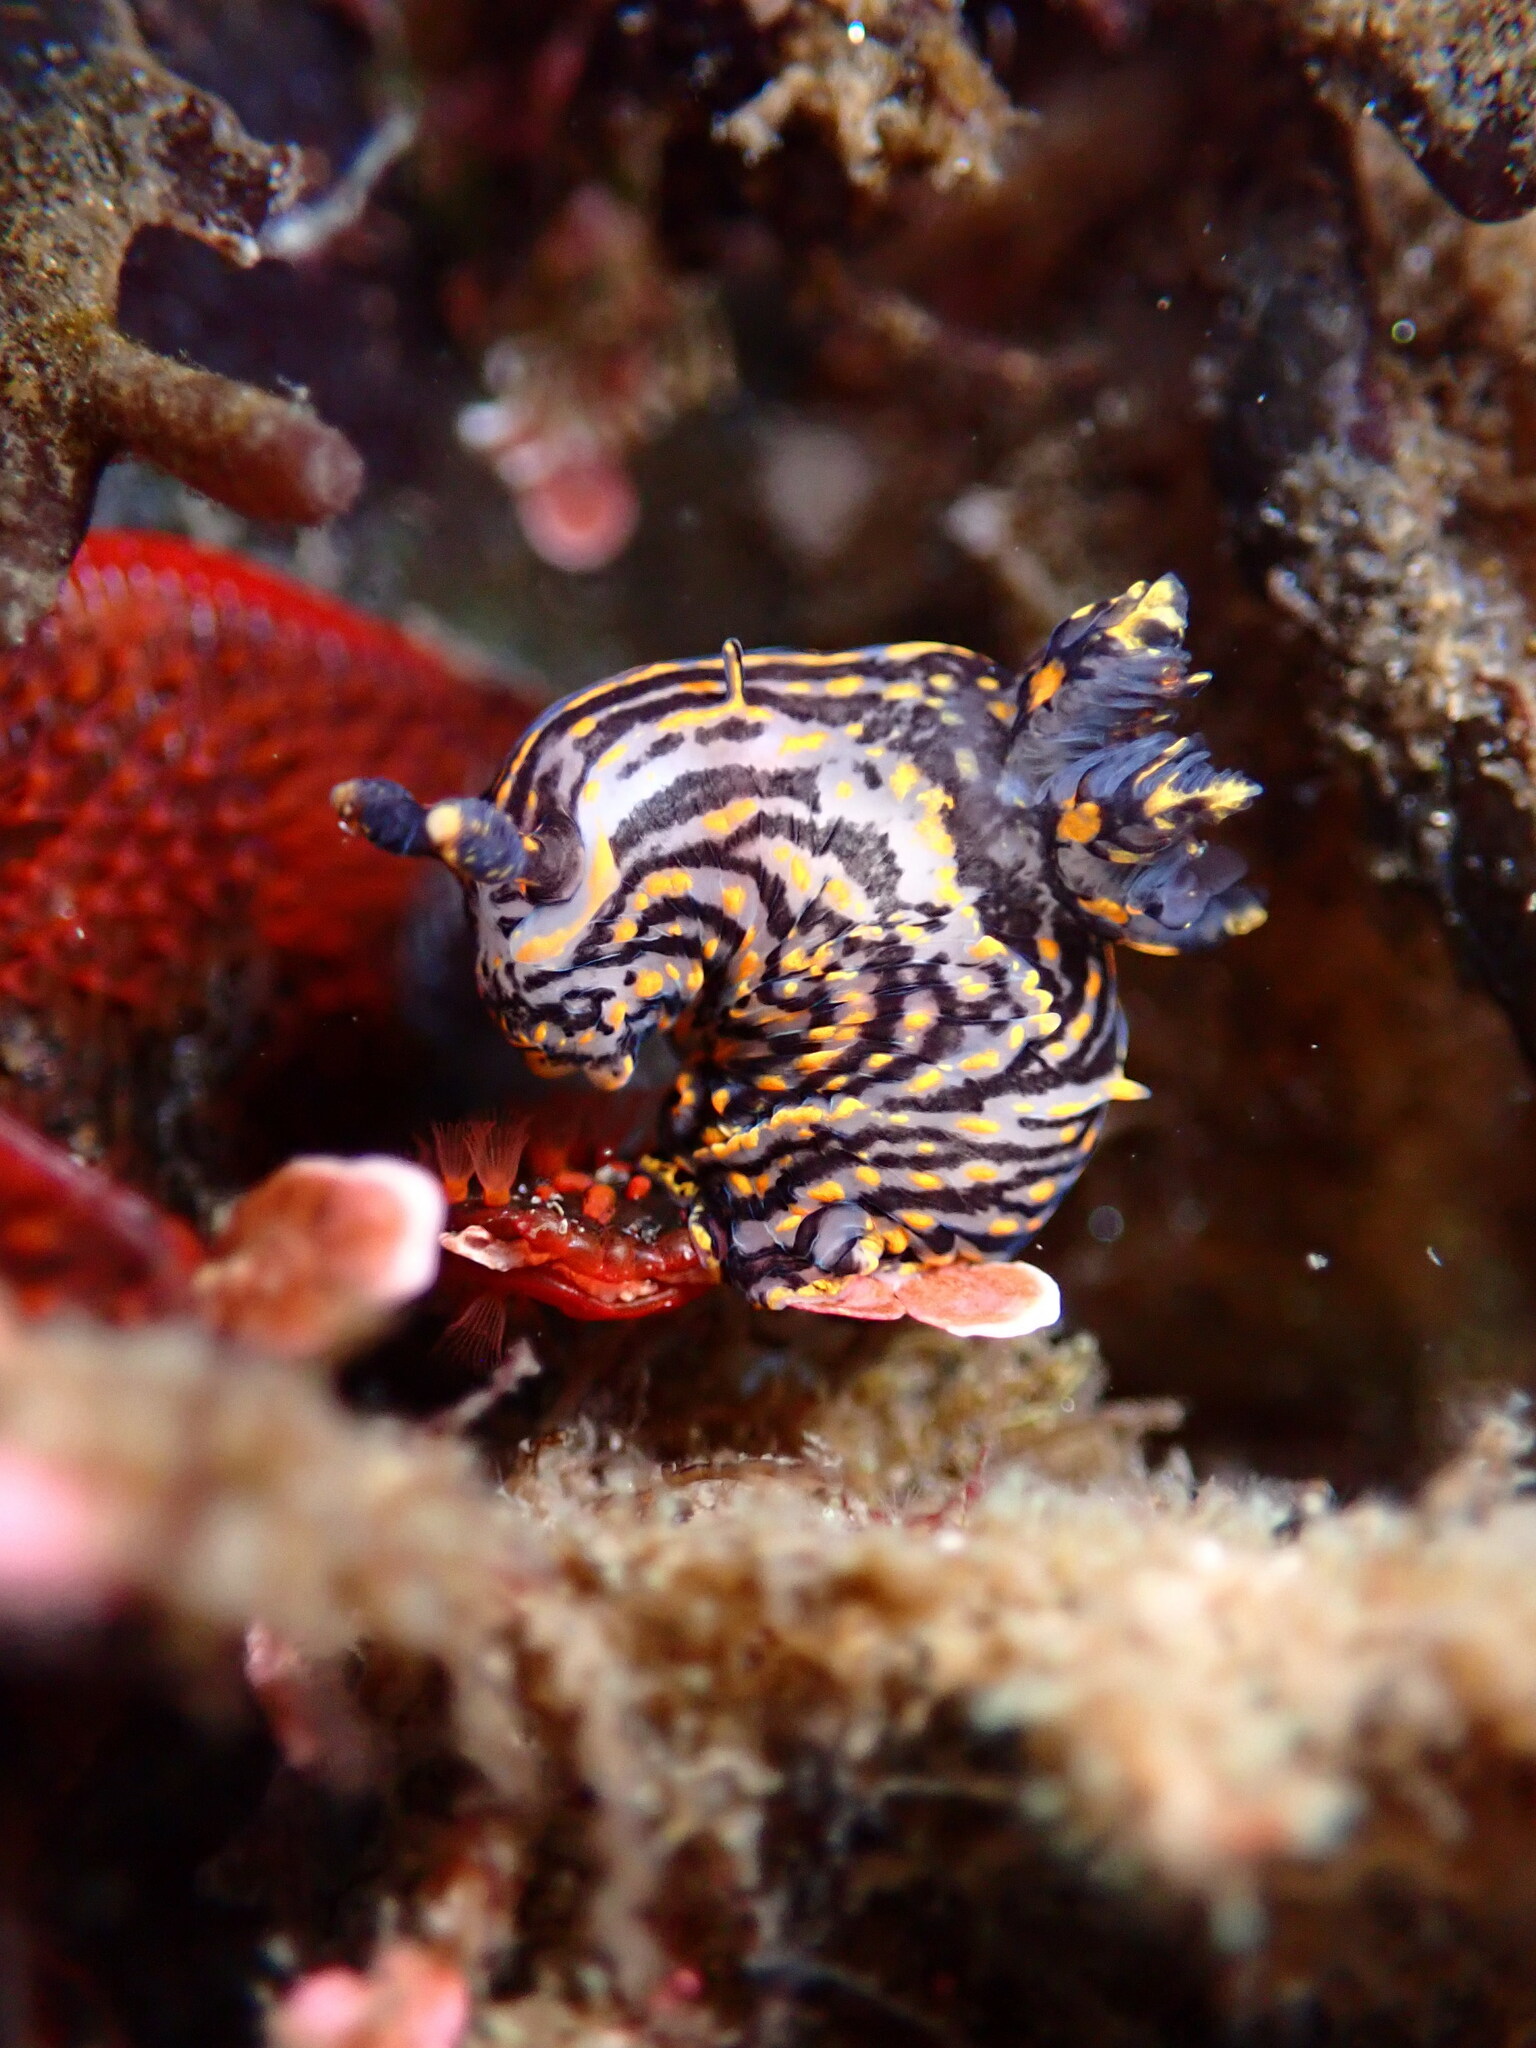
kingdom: Animalia
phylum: Mollusca
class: Gastropoda
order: Nudibranchia
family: Polyceridae
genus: Polycera
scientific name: Polycera atra
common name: Orange-spike polycera
